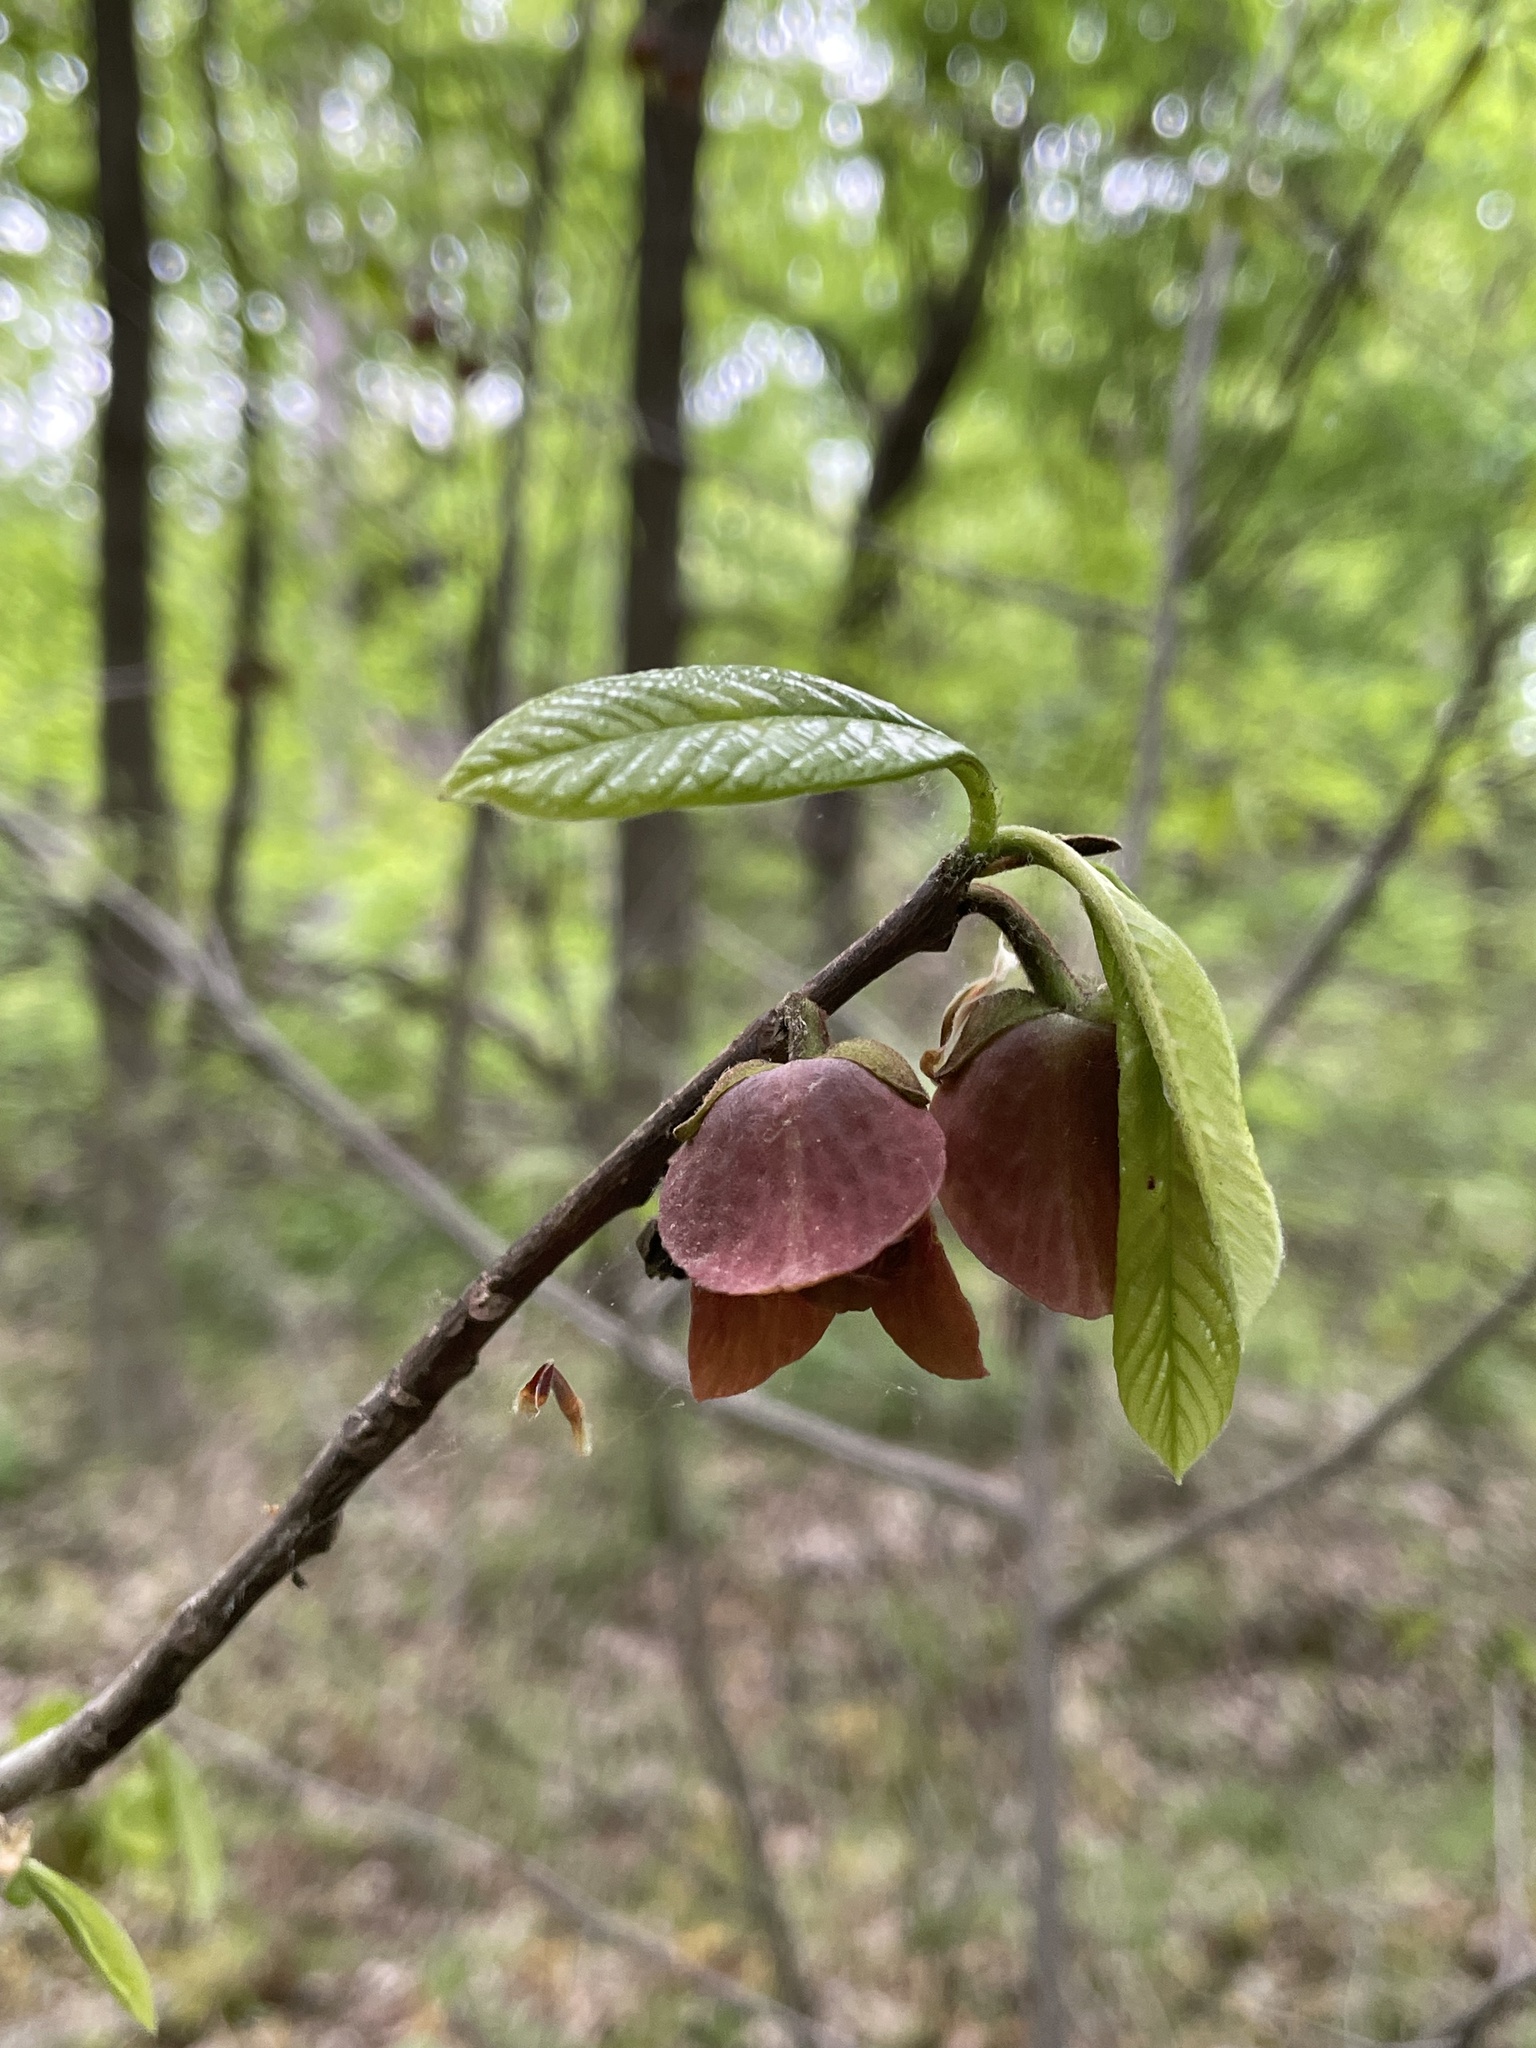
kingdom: Plantae
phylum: Tracheophyta
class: Magnoliopsida
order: Magnoliales
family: Annonaceae
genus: Asimina
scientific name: Asimina triloba
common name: Dog-banana
